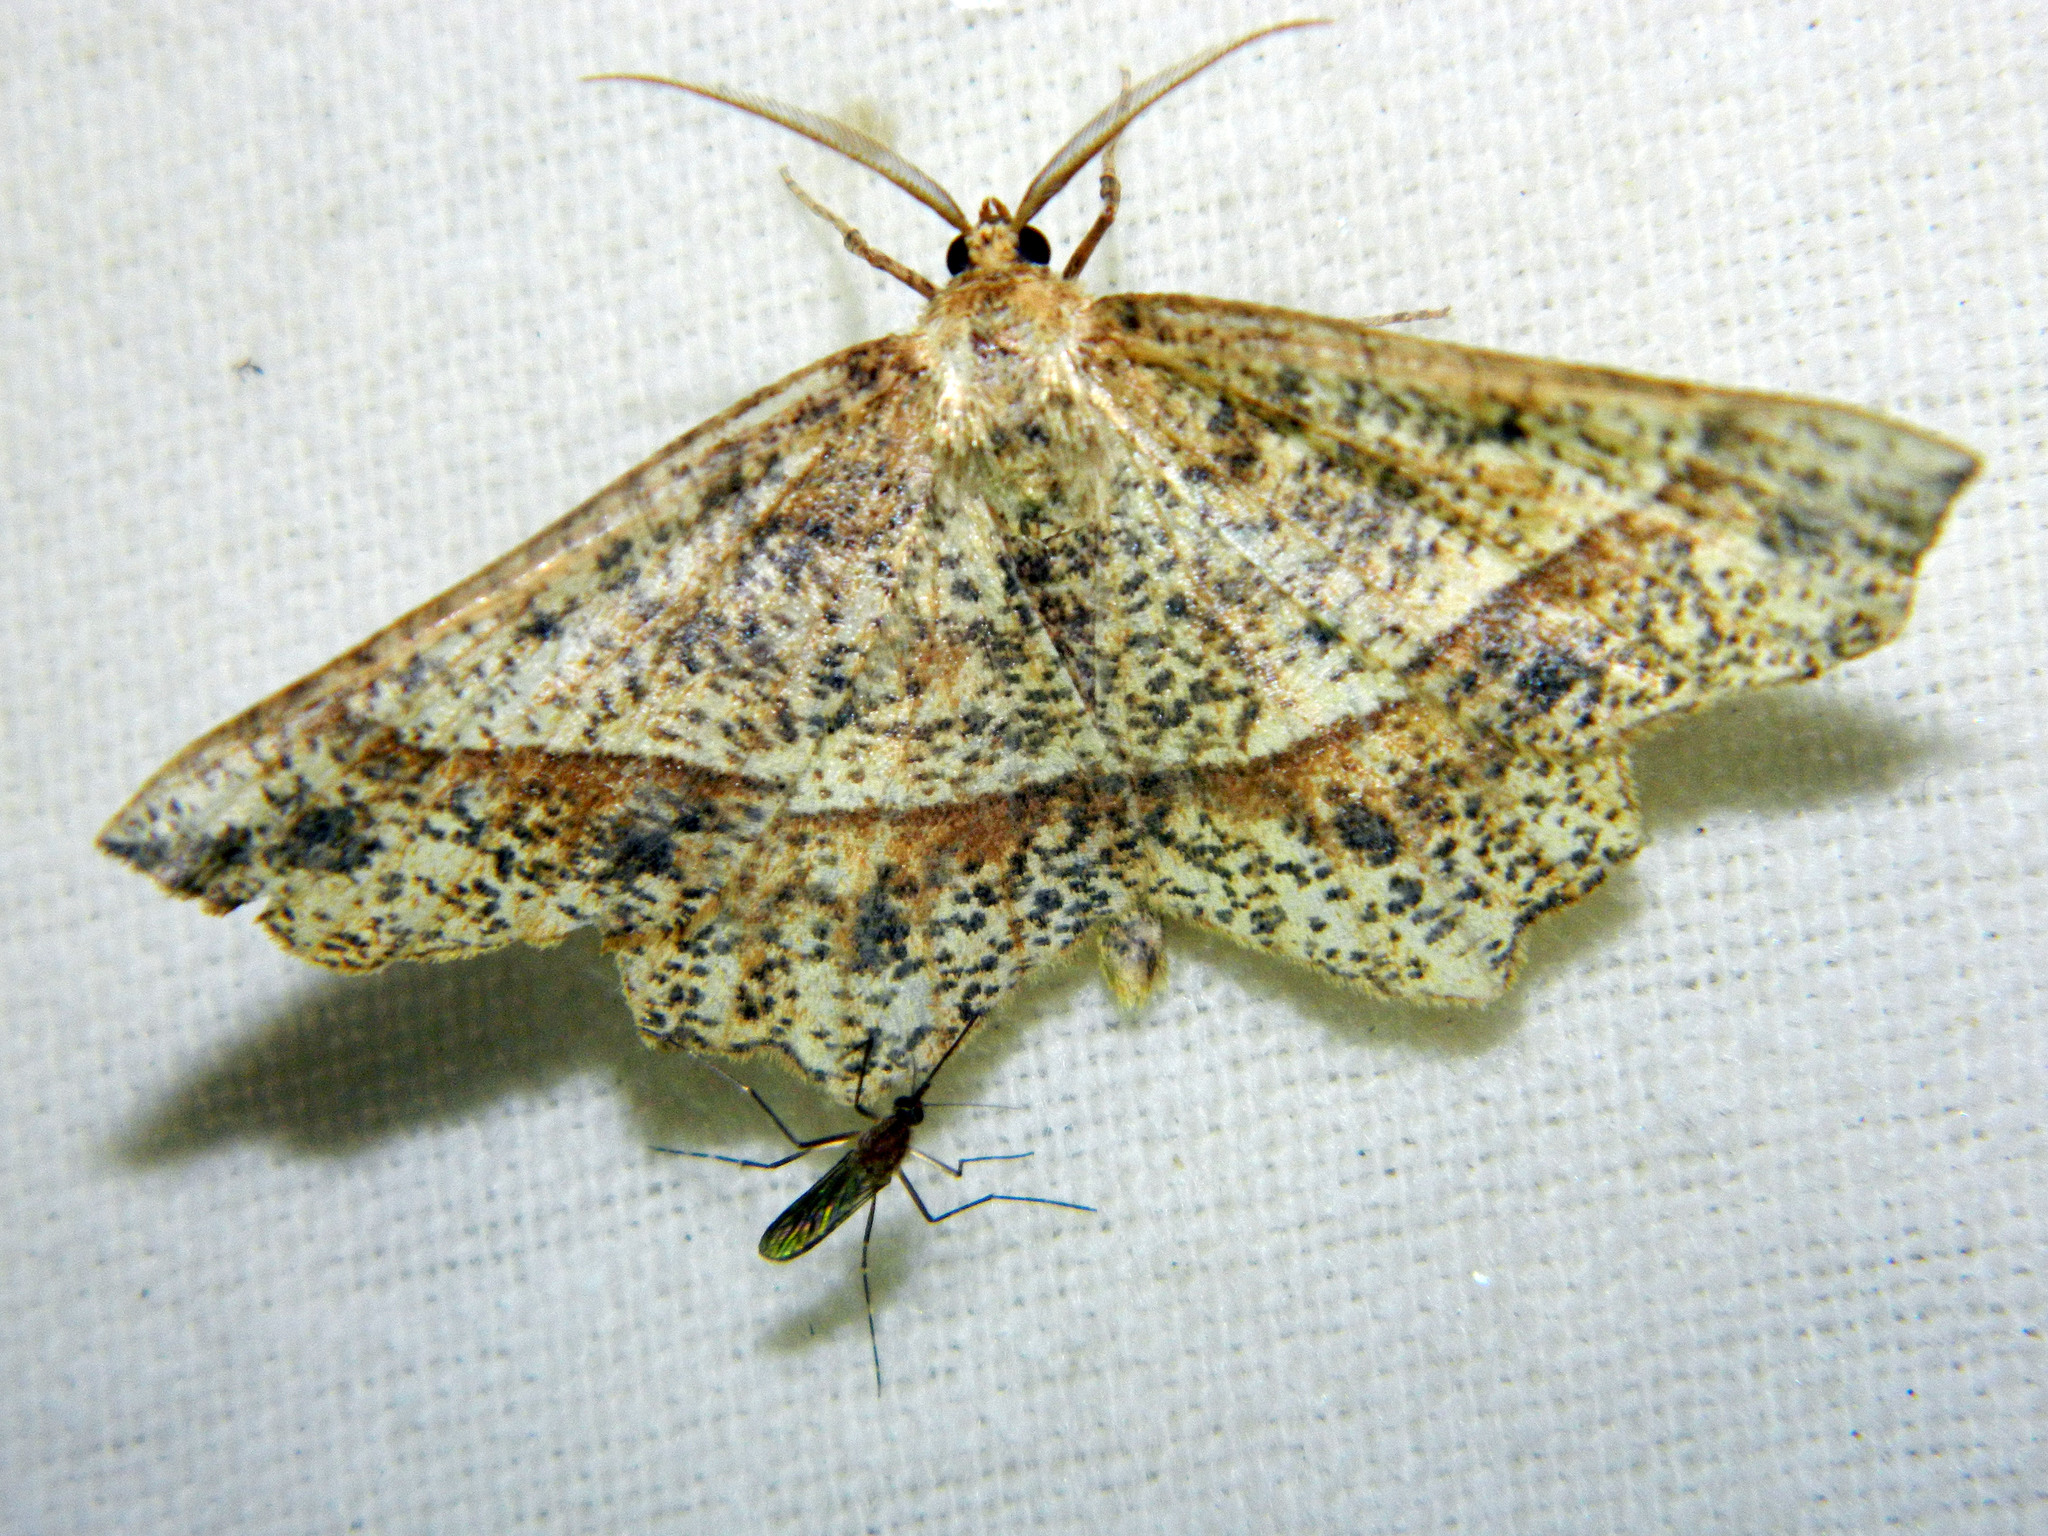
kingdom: Animalia
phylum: Arthropoda
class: Insecta
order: Lepidoptera
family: Geometridae
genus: Euchlaena
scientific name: Euchlaena tigrinaria
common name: Mottled euchlaena moth
